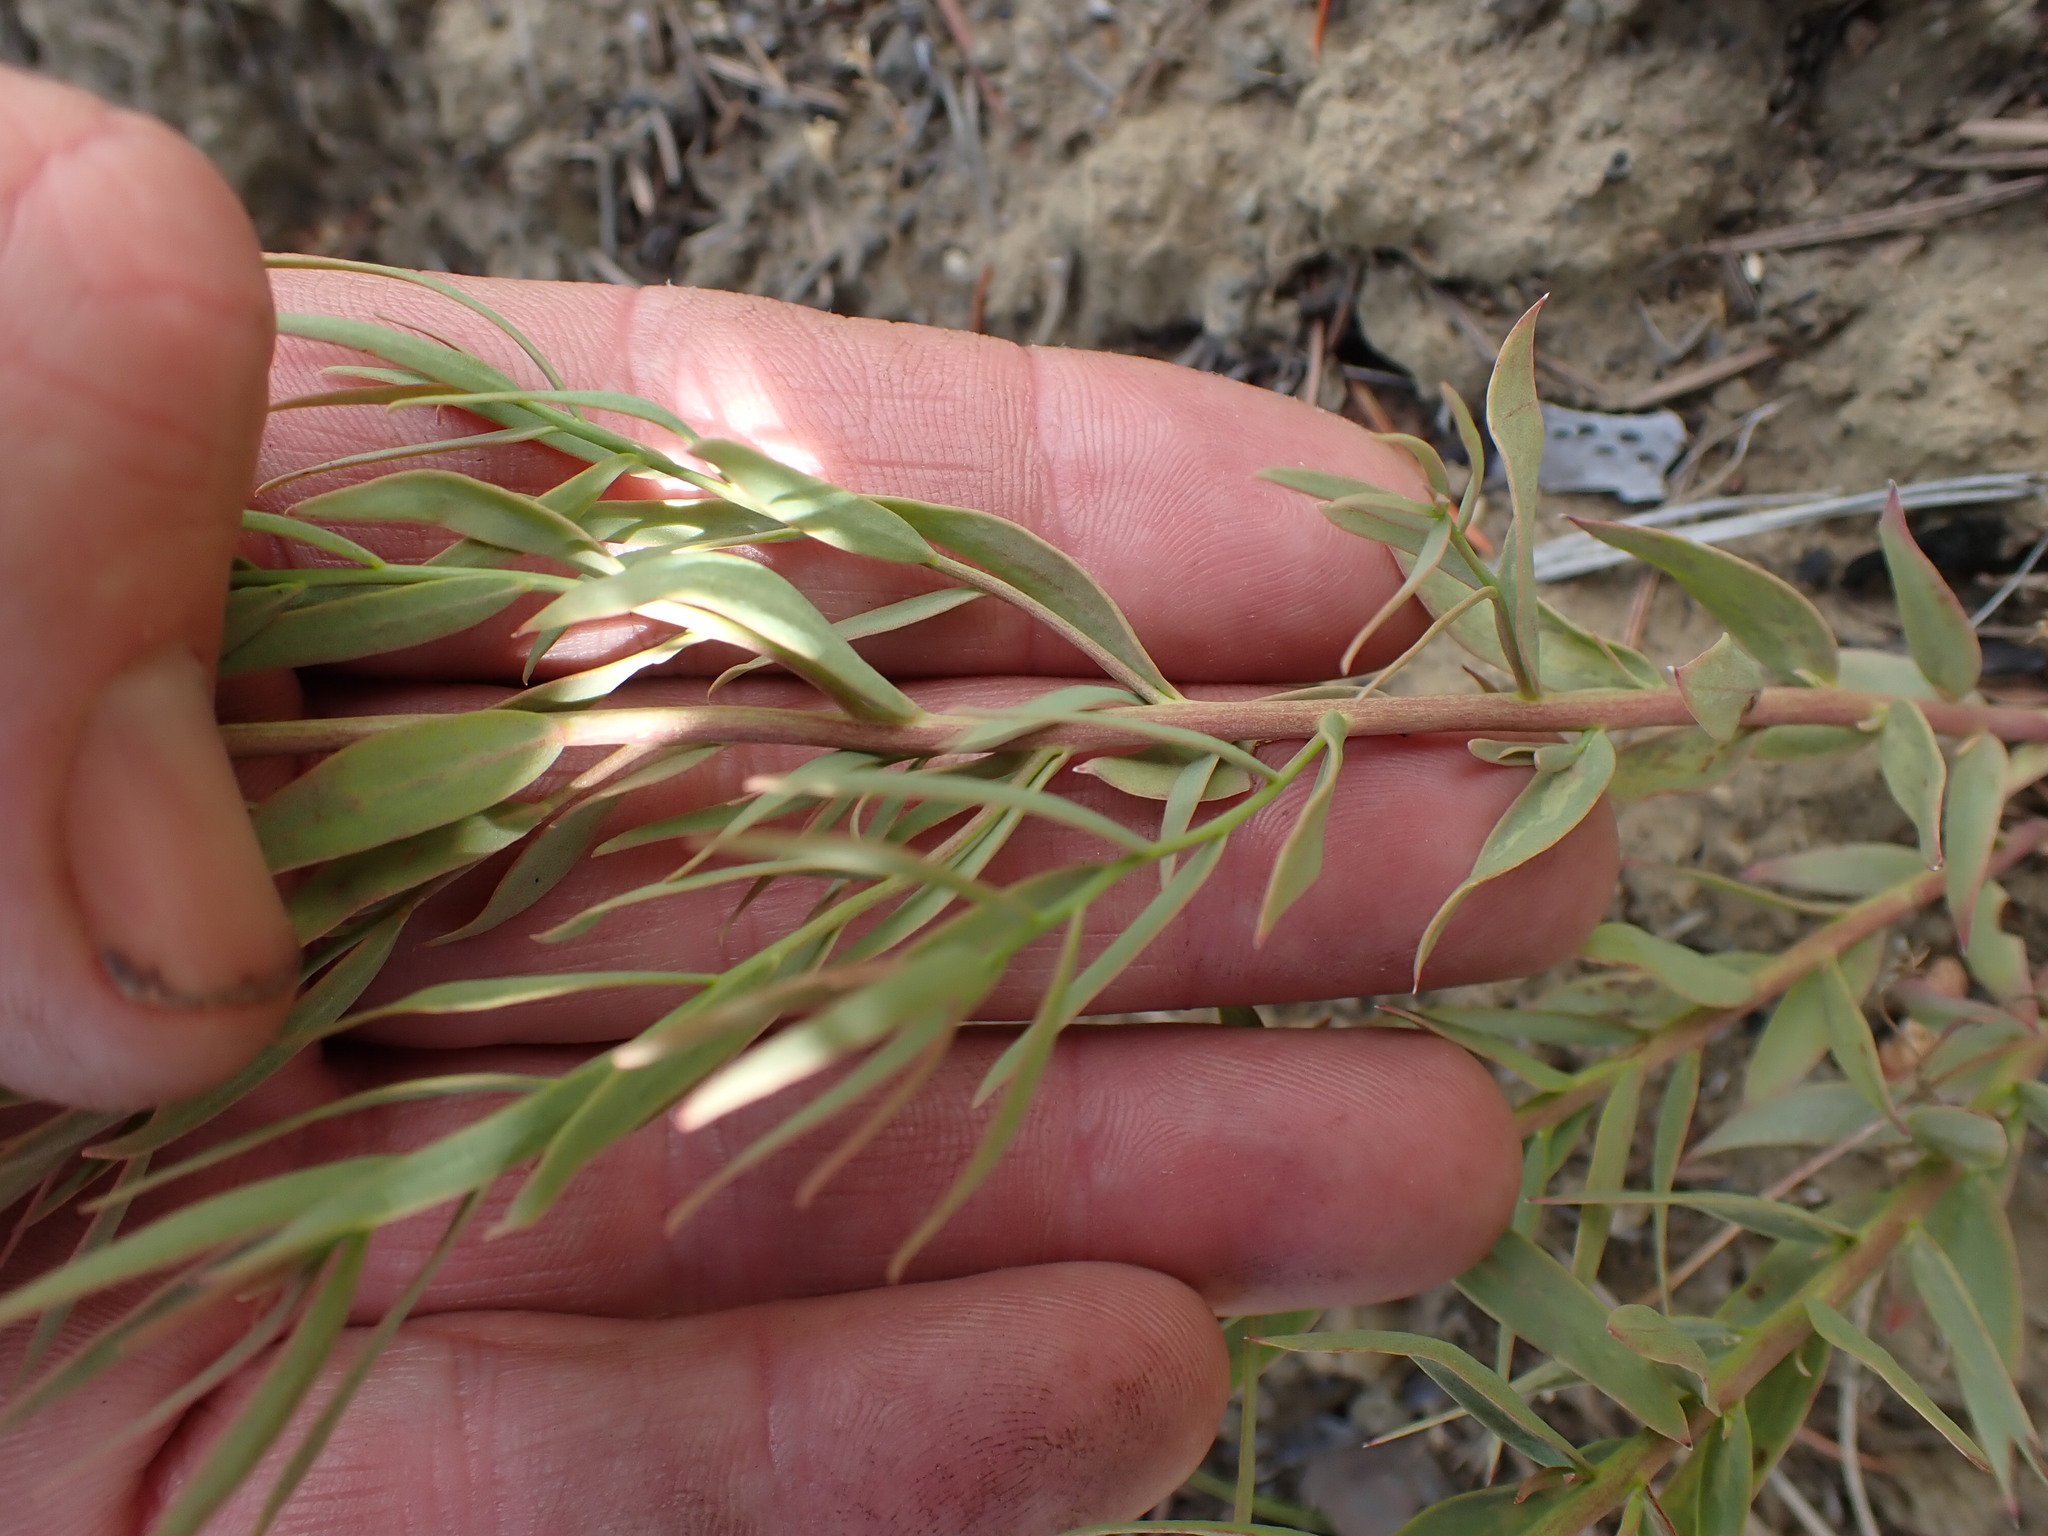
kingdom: Plantae
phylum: Tracheophyta
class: Magnoliopsida
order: Santalales
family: Comandraceae
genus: Comandra
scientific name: Comandra umbellata
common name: Bastard toadflax
